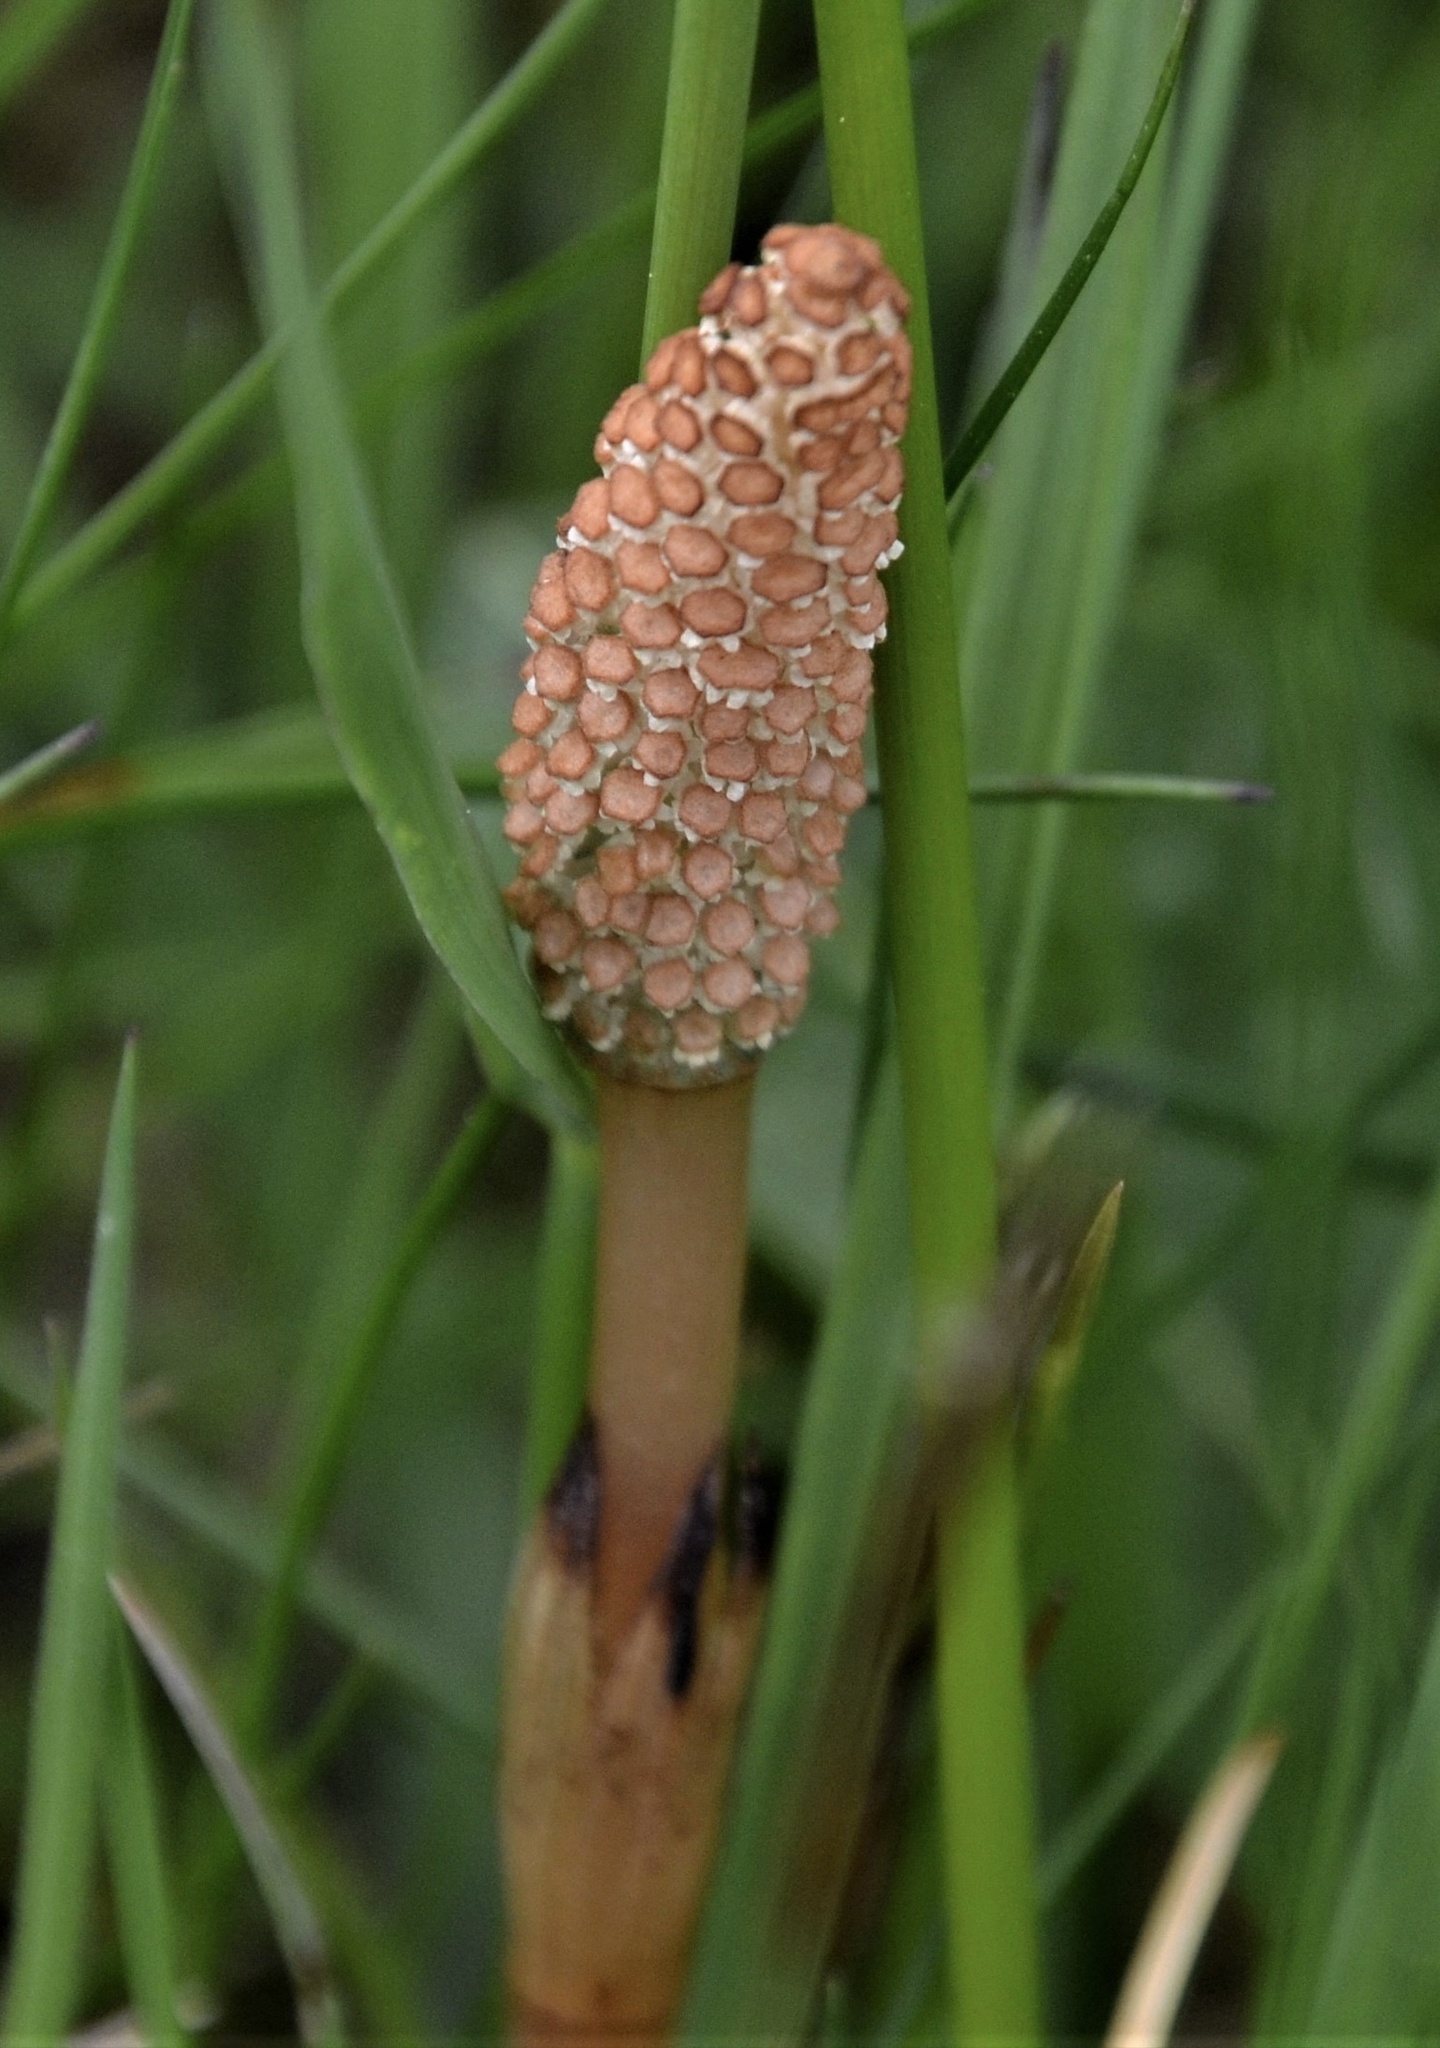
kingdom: Plantae
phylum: Tracheophyta
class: Polypodiopsida
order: Equisetales
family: Equisetaceae
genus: Equisetum
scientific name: Equisetum arvense
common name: Field horsetail
